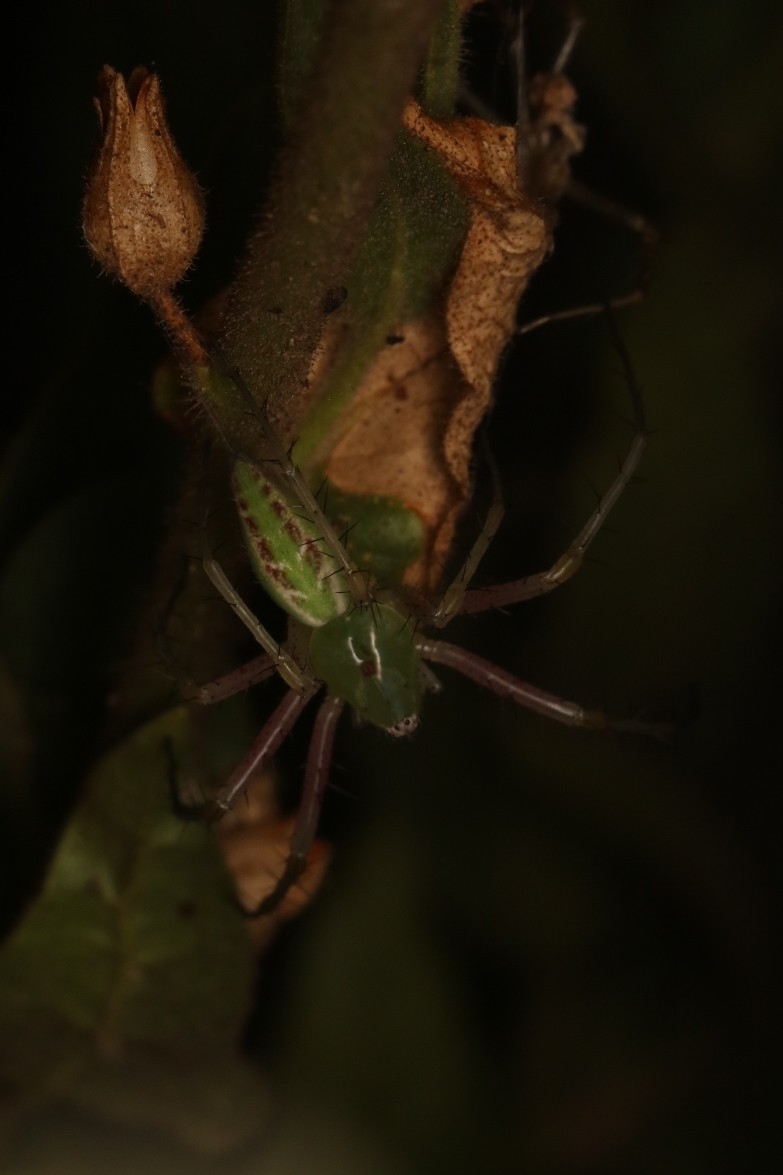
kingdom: Animalia
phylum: Arthropoda
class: Arachnida
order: Araneae
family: Oxyopidae
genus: Peucetia
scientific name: Peucetia viridans
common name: Lynx spiders
